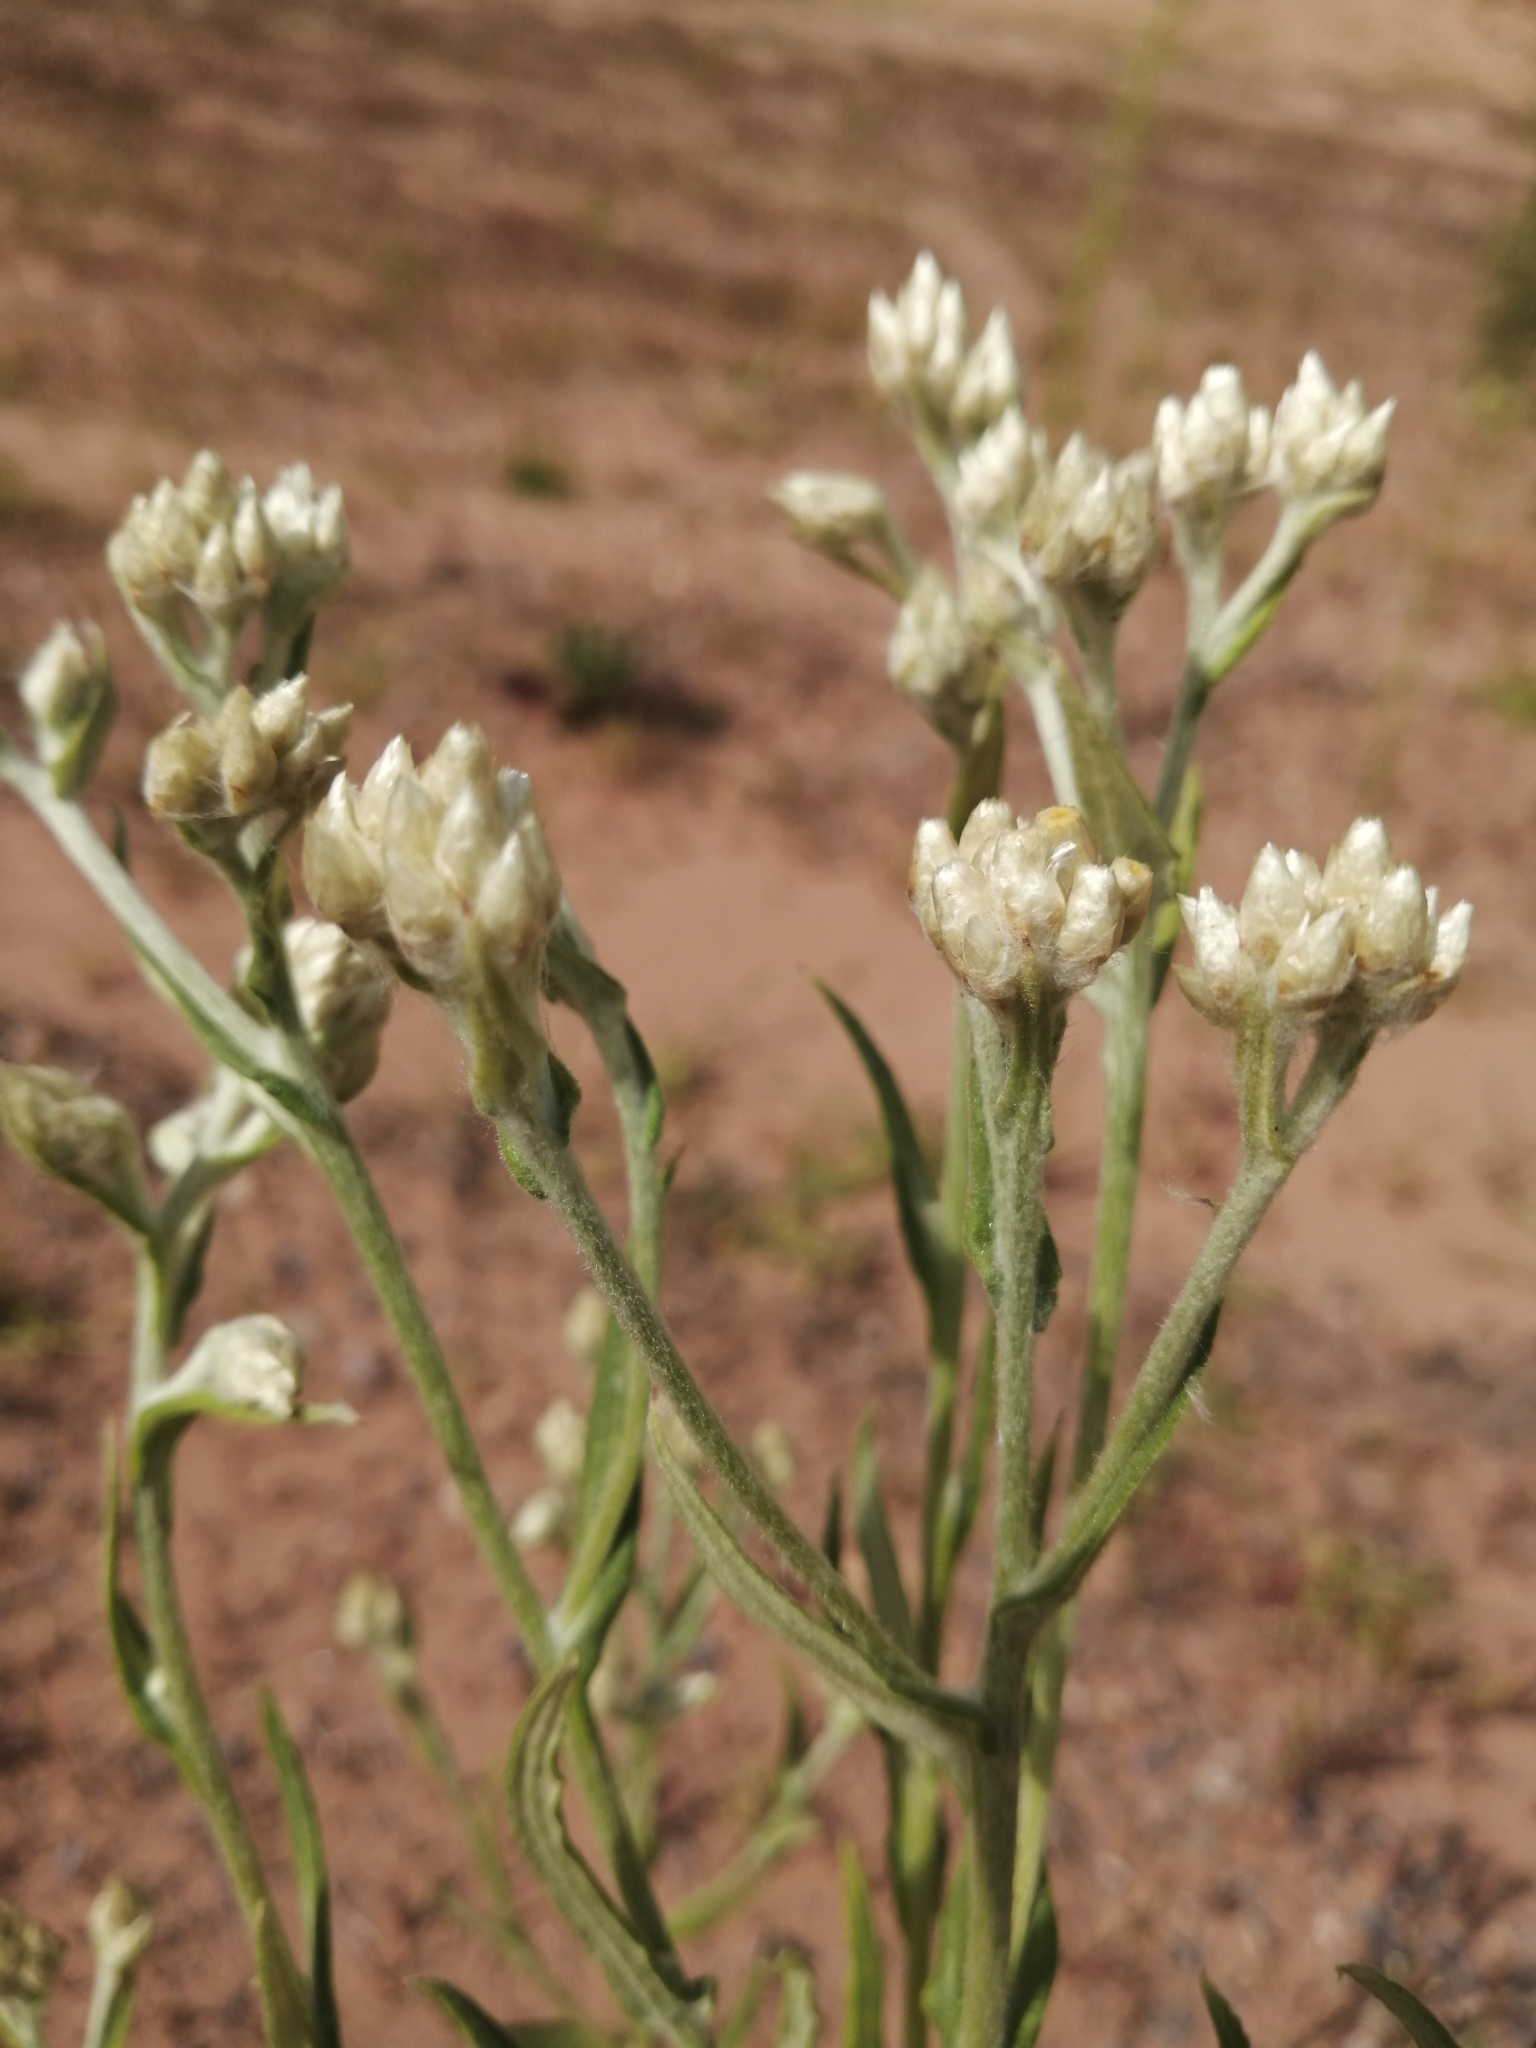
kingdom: Plantae
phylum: Tracheophyta
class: Magnoliopsida
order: Asterales
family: Asteraceae
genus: Pseudognaphalium
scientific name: Pseudognaphalium macounii
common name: Clammy cudweed
